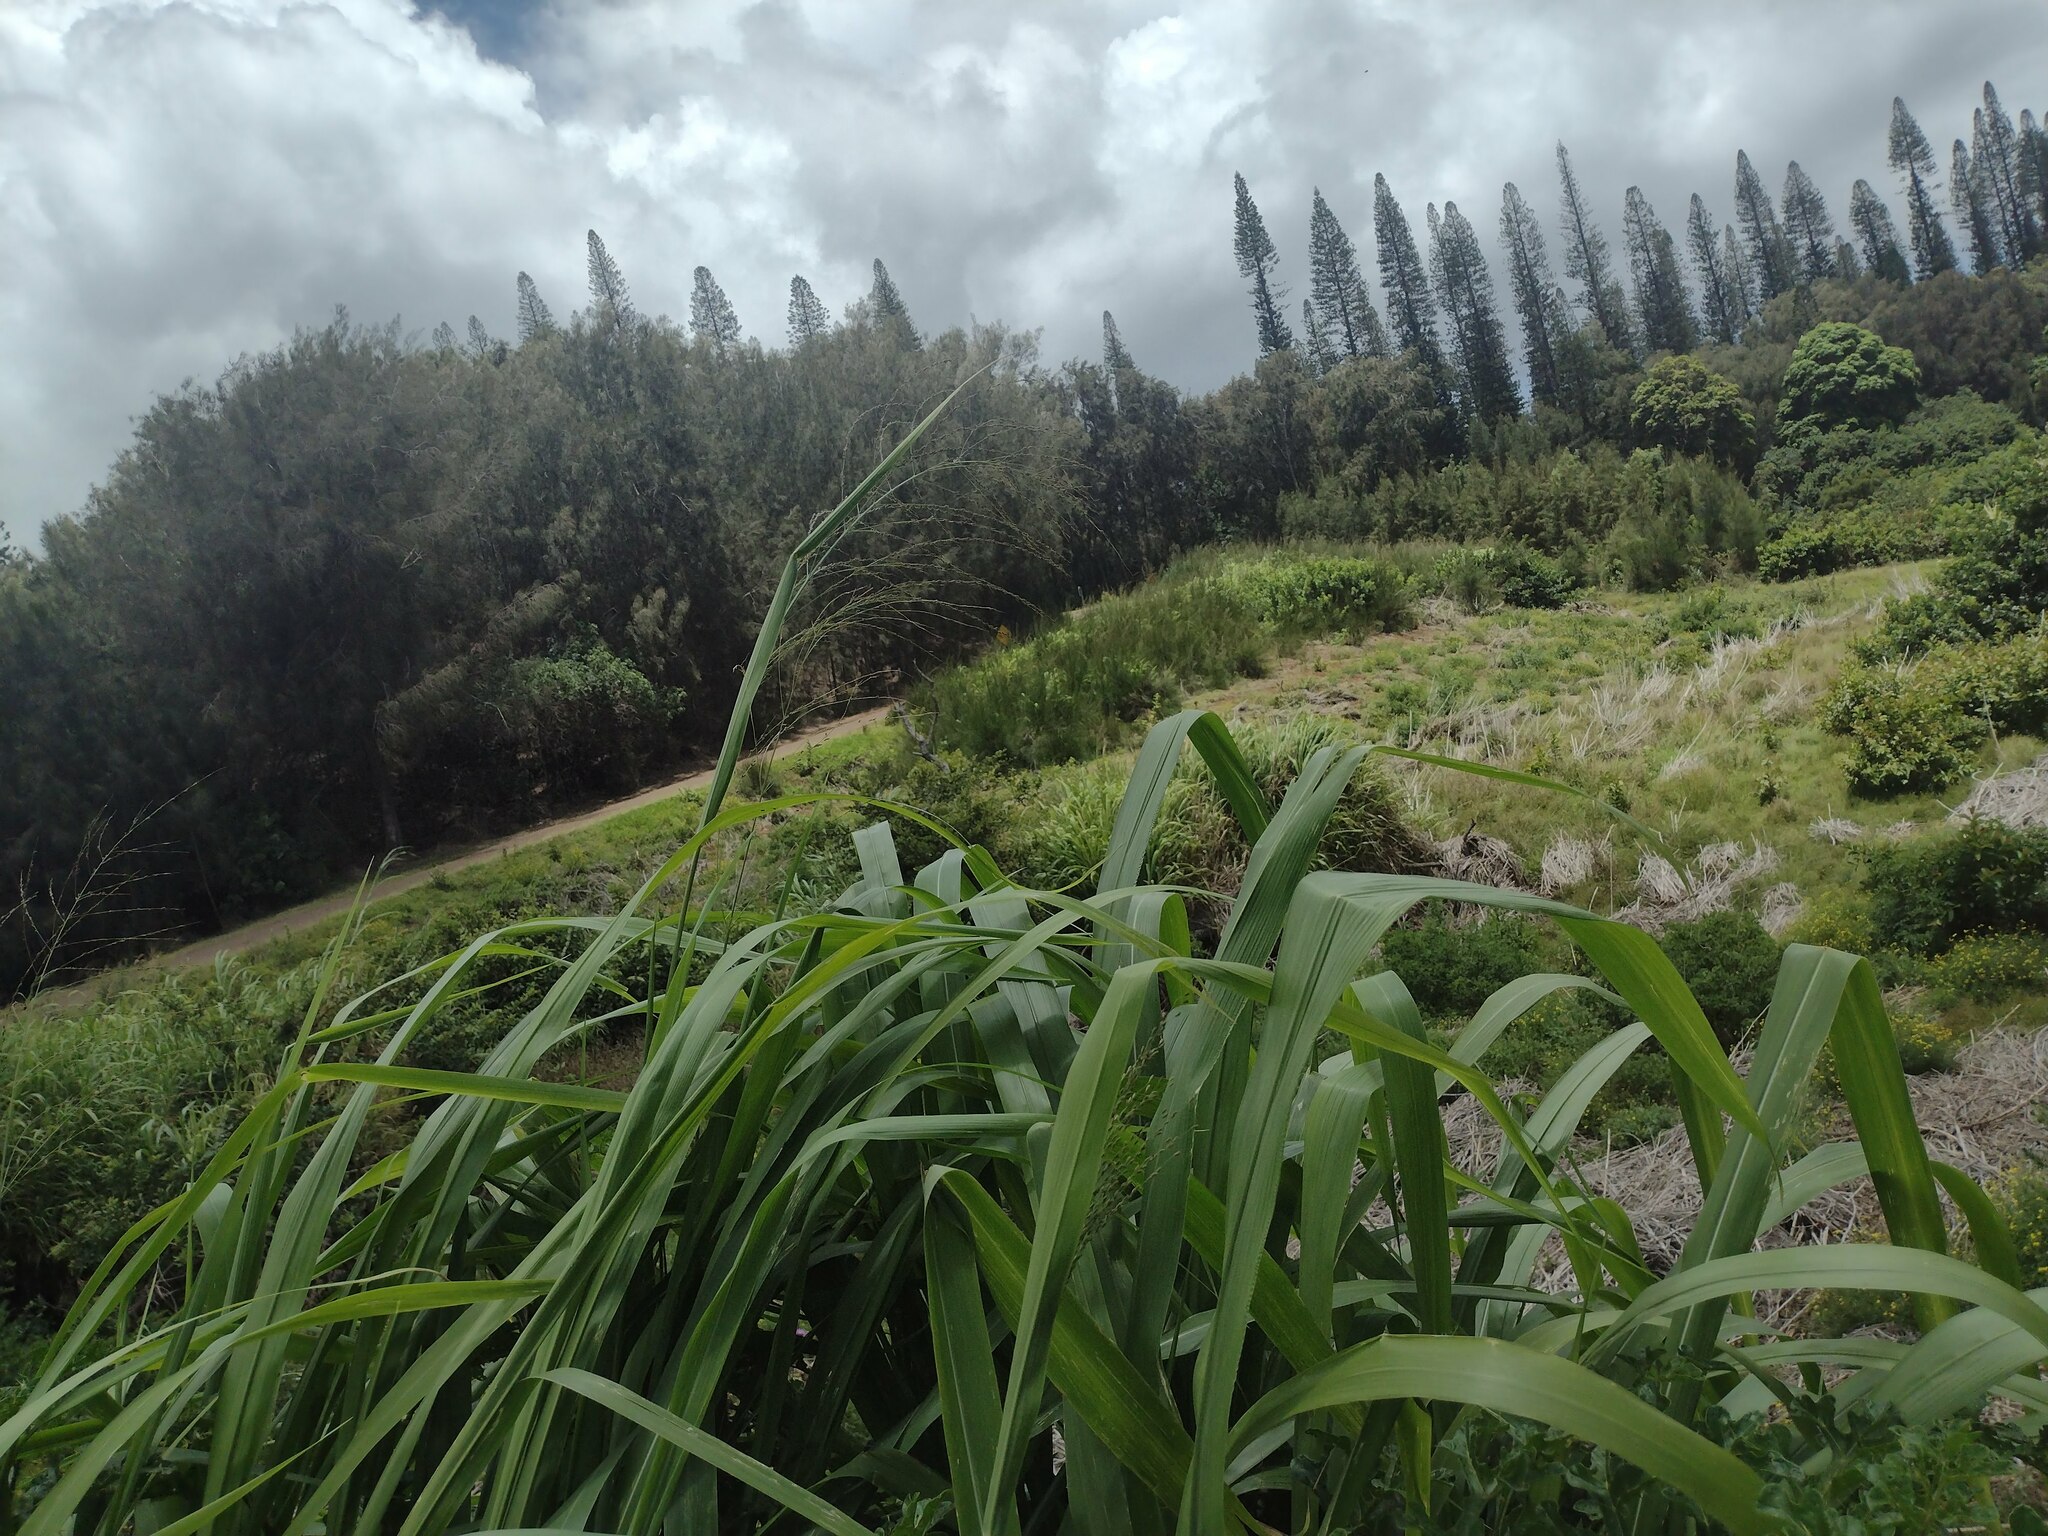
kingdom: Plantae
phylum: Tracheophyta
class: Liliopsida
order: Poales
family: Poaceae
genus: Megathyrsus
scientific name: Megathyrsus maximus
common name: Guineagrass
